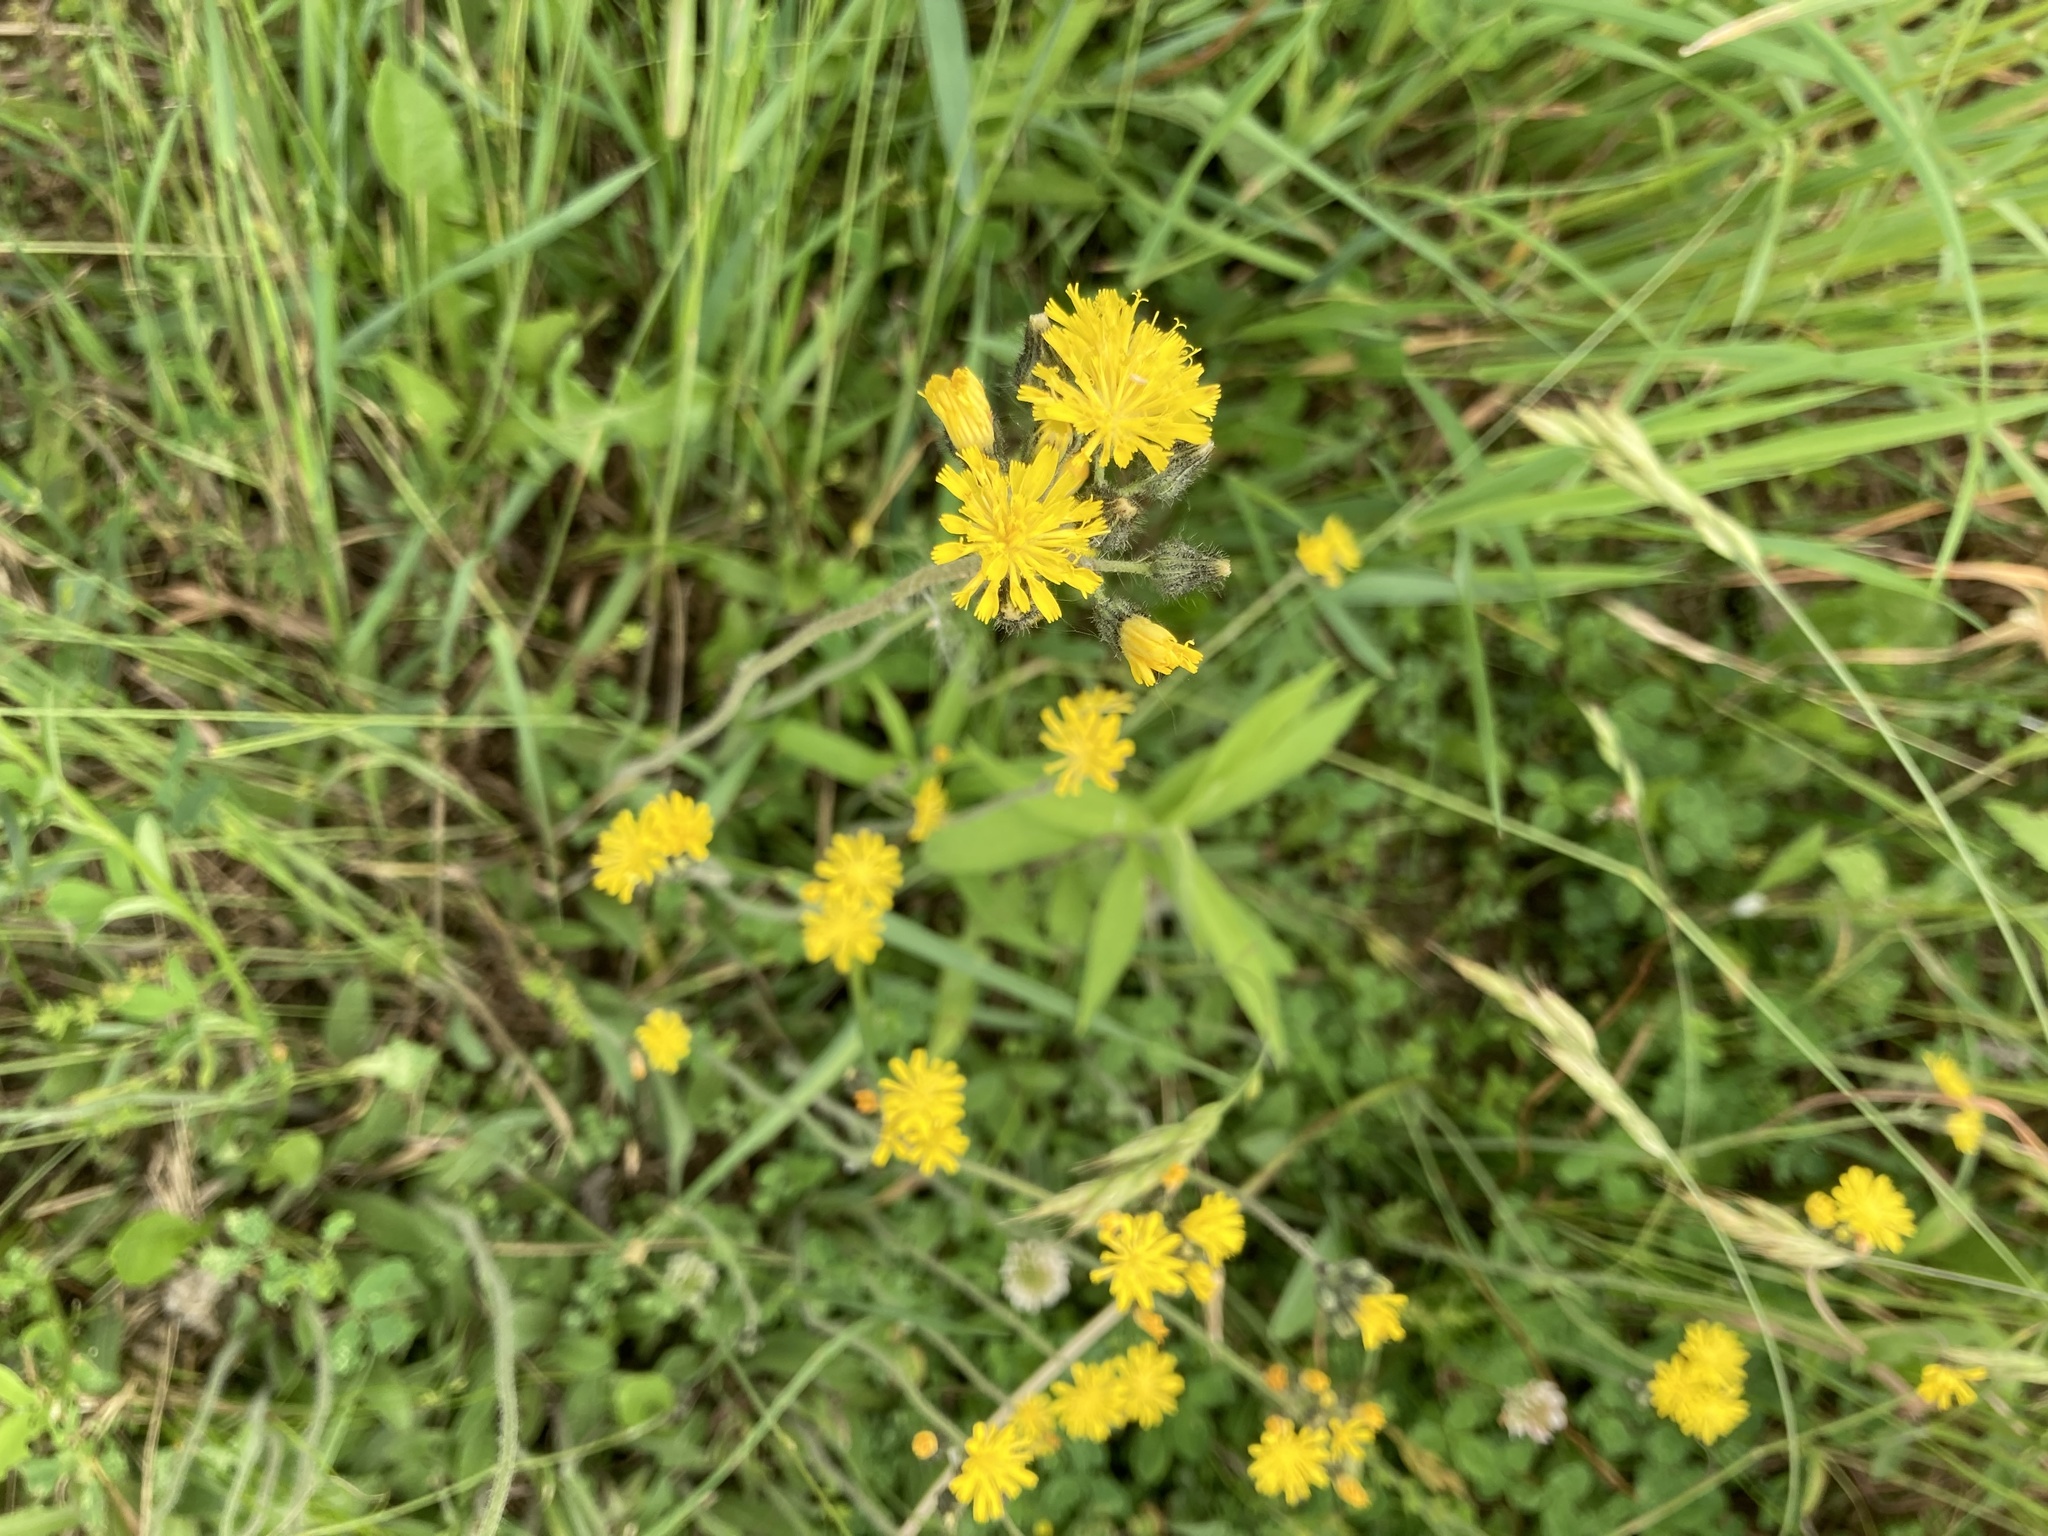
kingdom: Plantae
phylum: Tracheophyta
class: Magnoliopsida
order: Asterales
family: Asteraceae
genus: Pilosella
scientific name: Pilosella caespitosa
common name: Yellow fox-and-cubs
